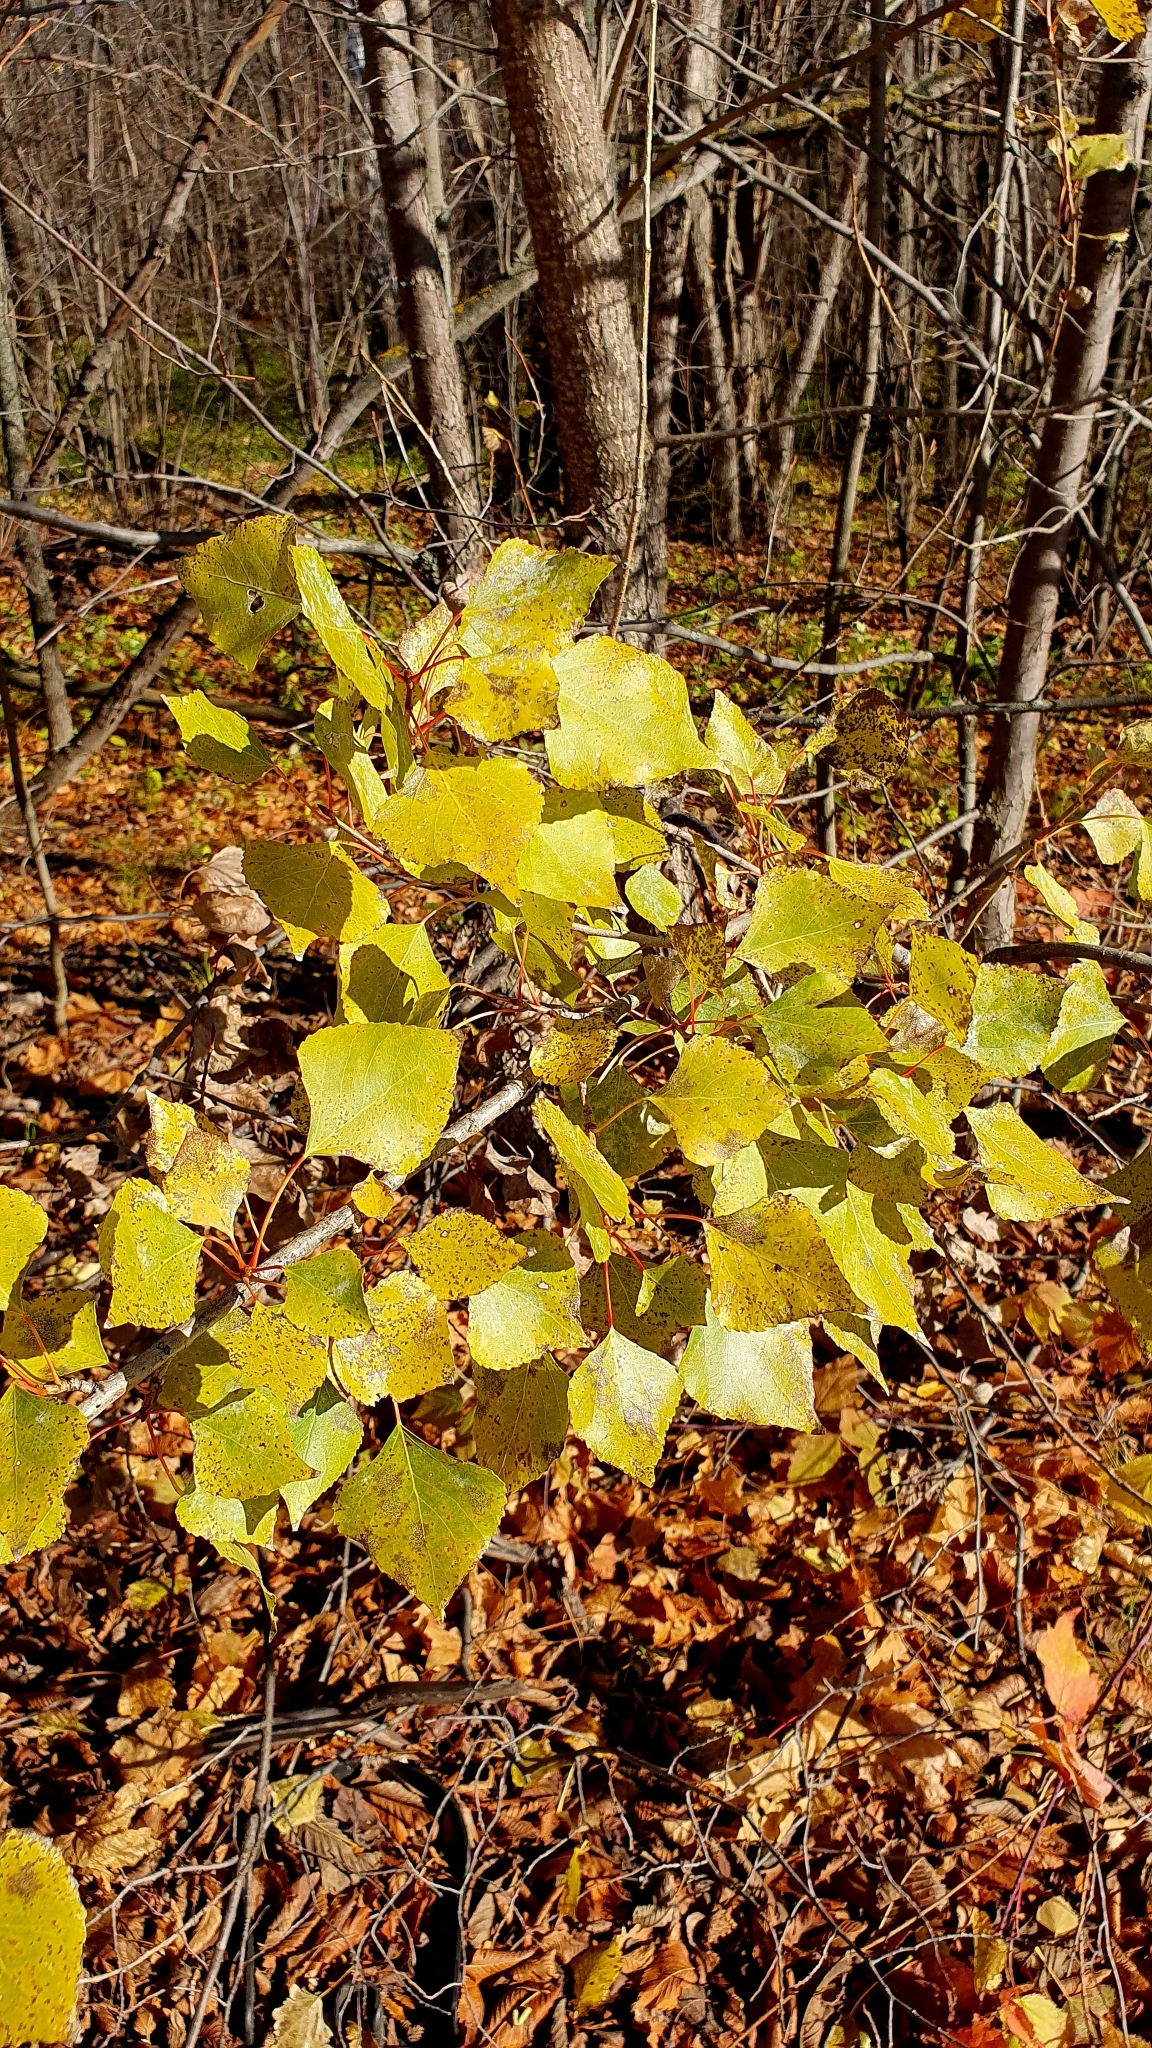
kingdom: Plantae
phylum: Tracheophyta
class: Magnoliopsida
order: Malpighiales
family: Salicaceae
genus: Populus
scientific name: Populus nigra
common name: Black poplar
